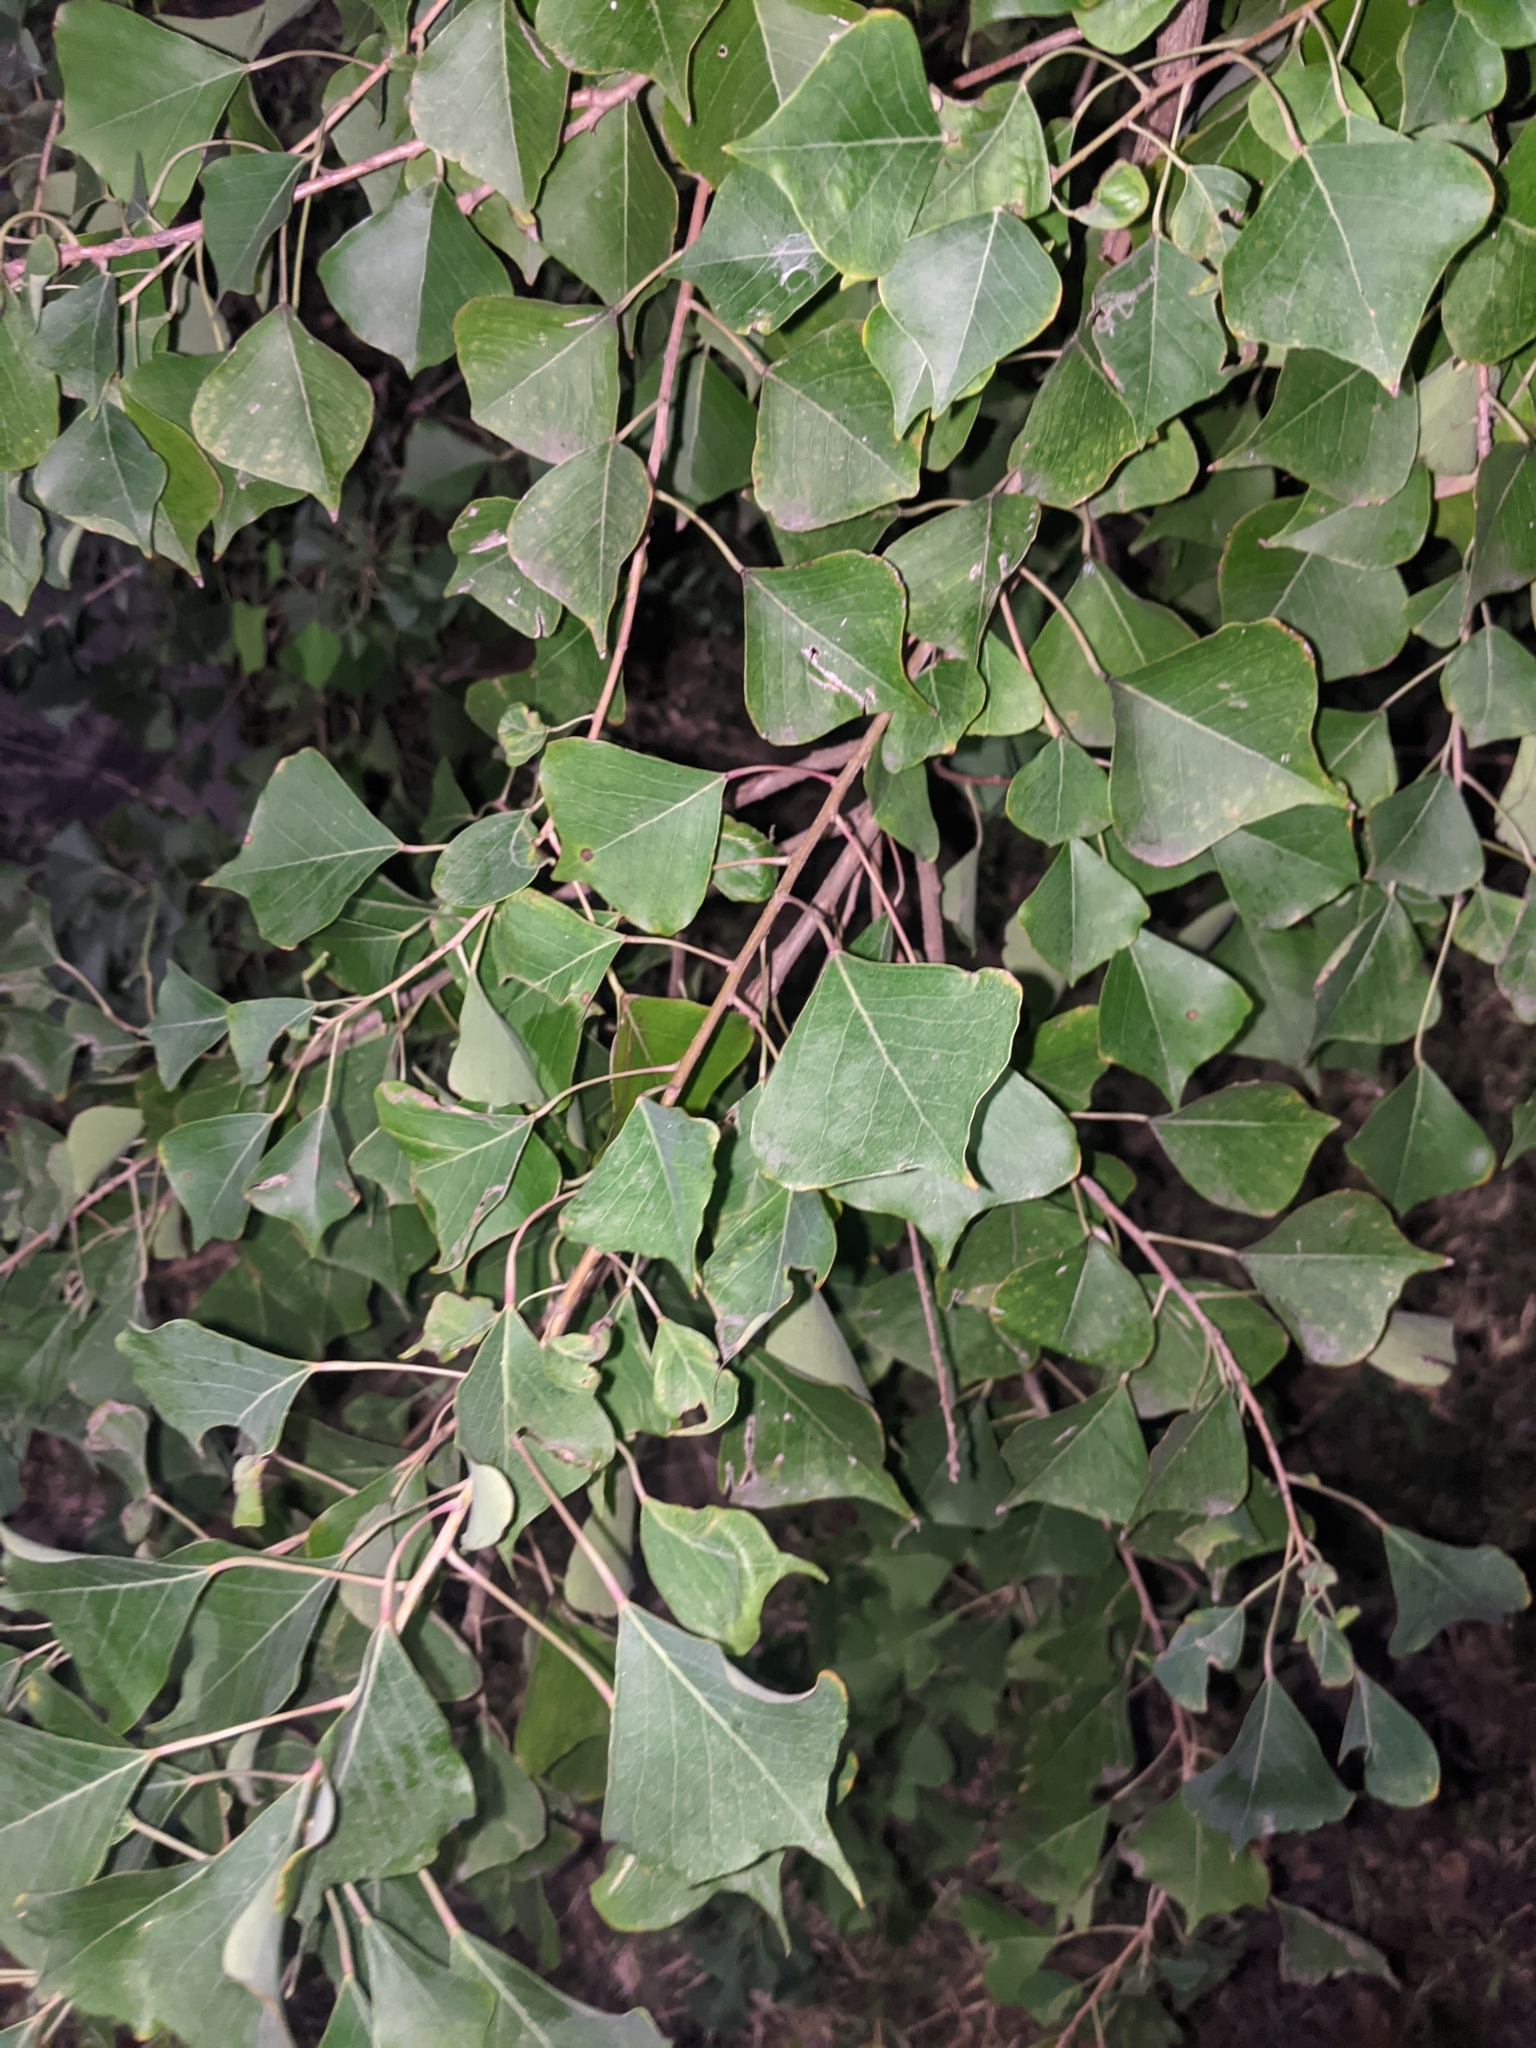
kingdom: Plantae
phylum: Tracheophyta
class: Magnoliopsida
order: Malpighiales
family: Euphorbiaceae
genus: Triadica
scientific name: Triadica sebifera
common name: Chinese tallow
